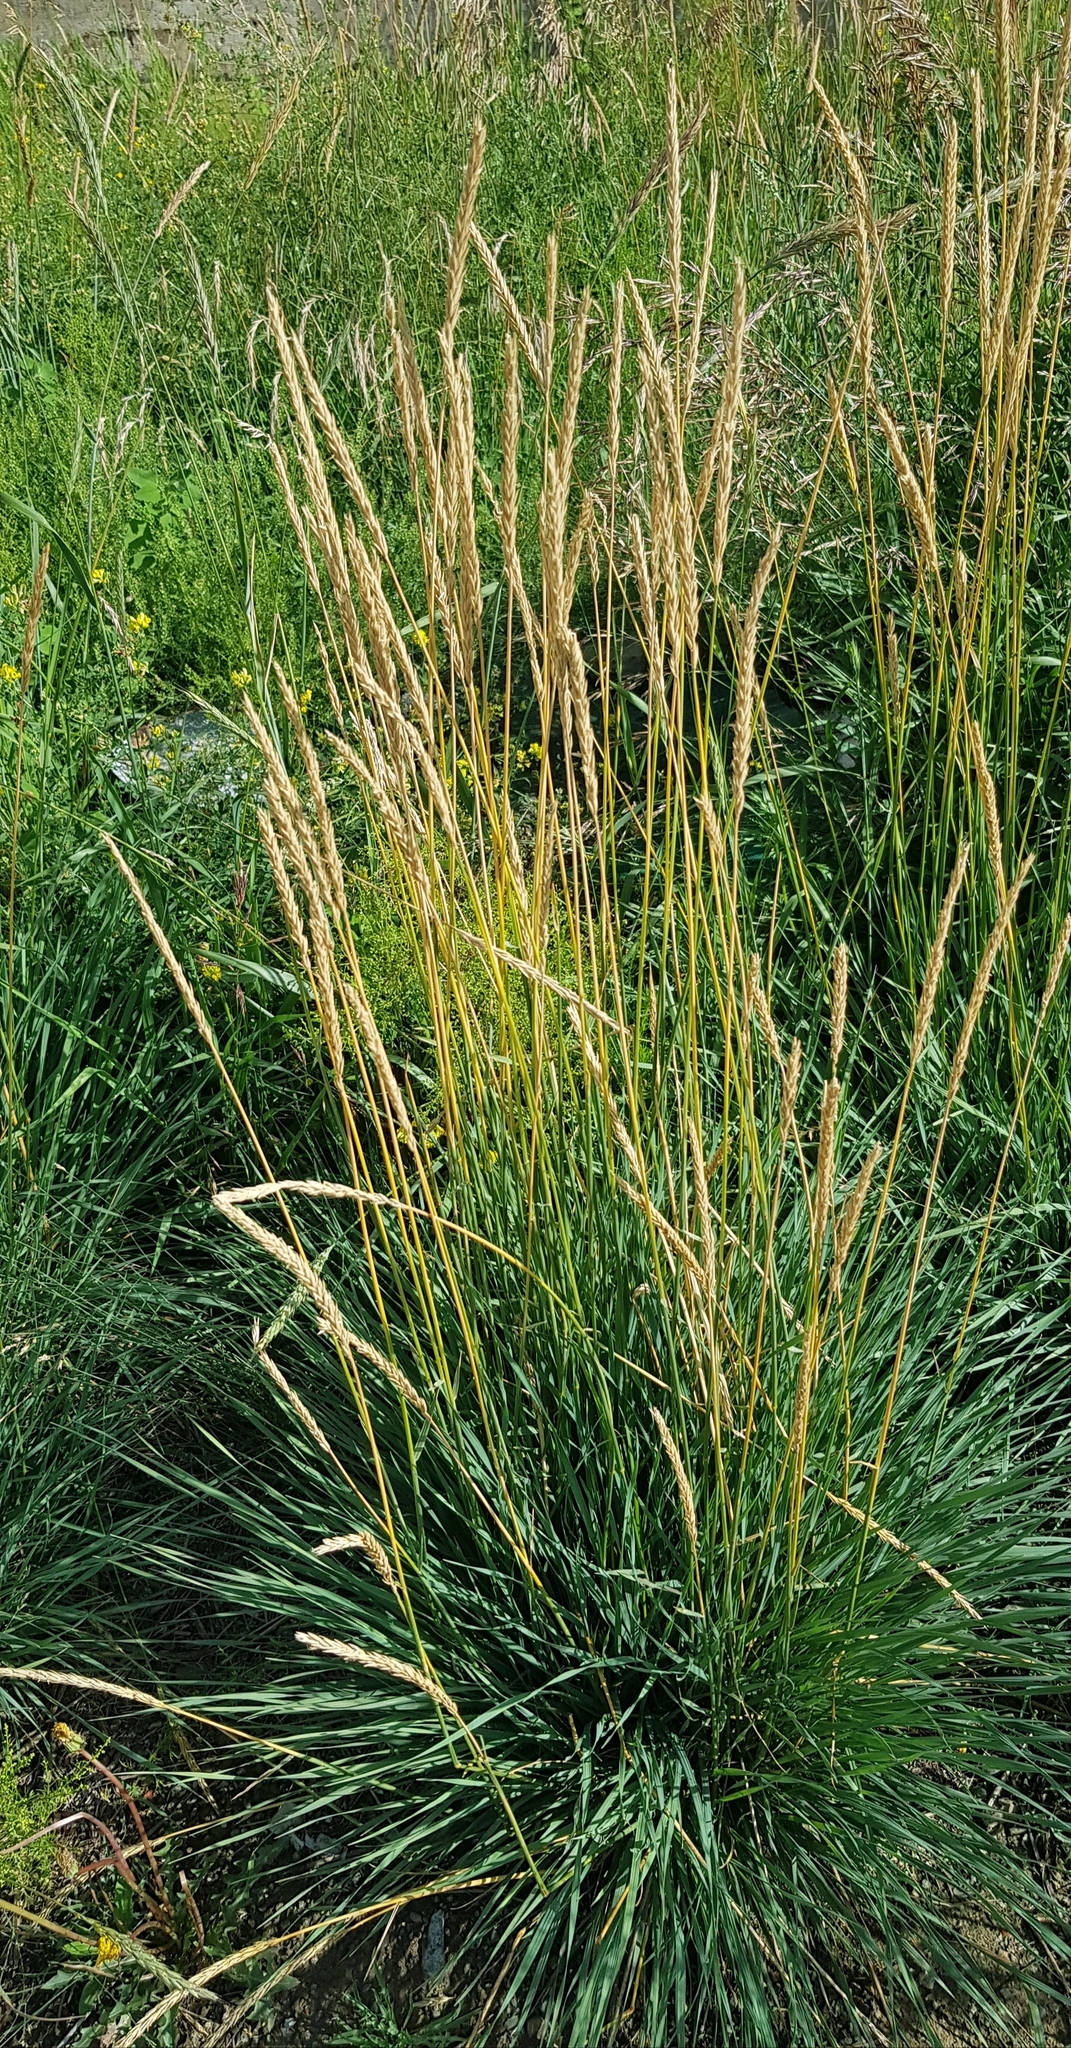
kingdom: Plantae
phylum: Tracheophyta
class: Liliopsida
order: Poales
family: Poaceae
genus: Koeleria
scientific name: Koeleria macrantha
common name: Crested hair-grass
